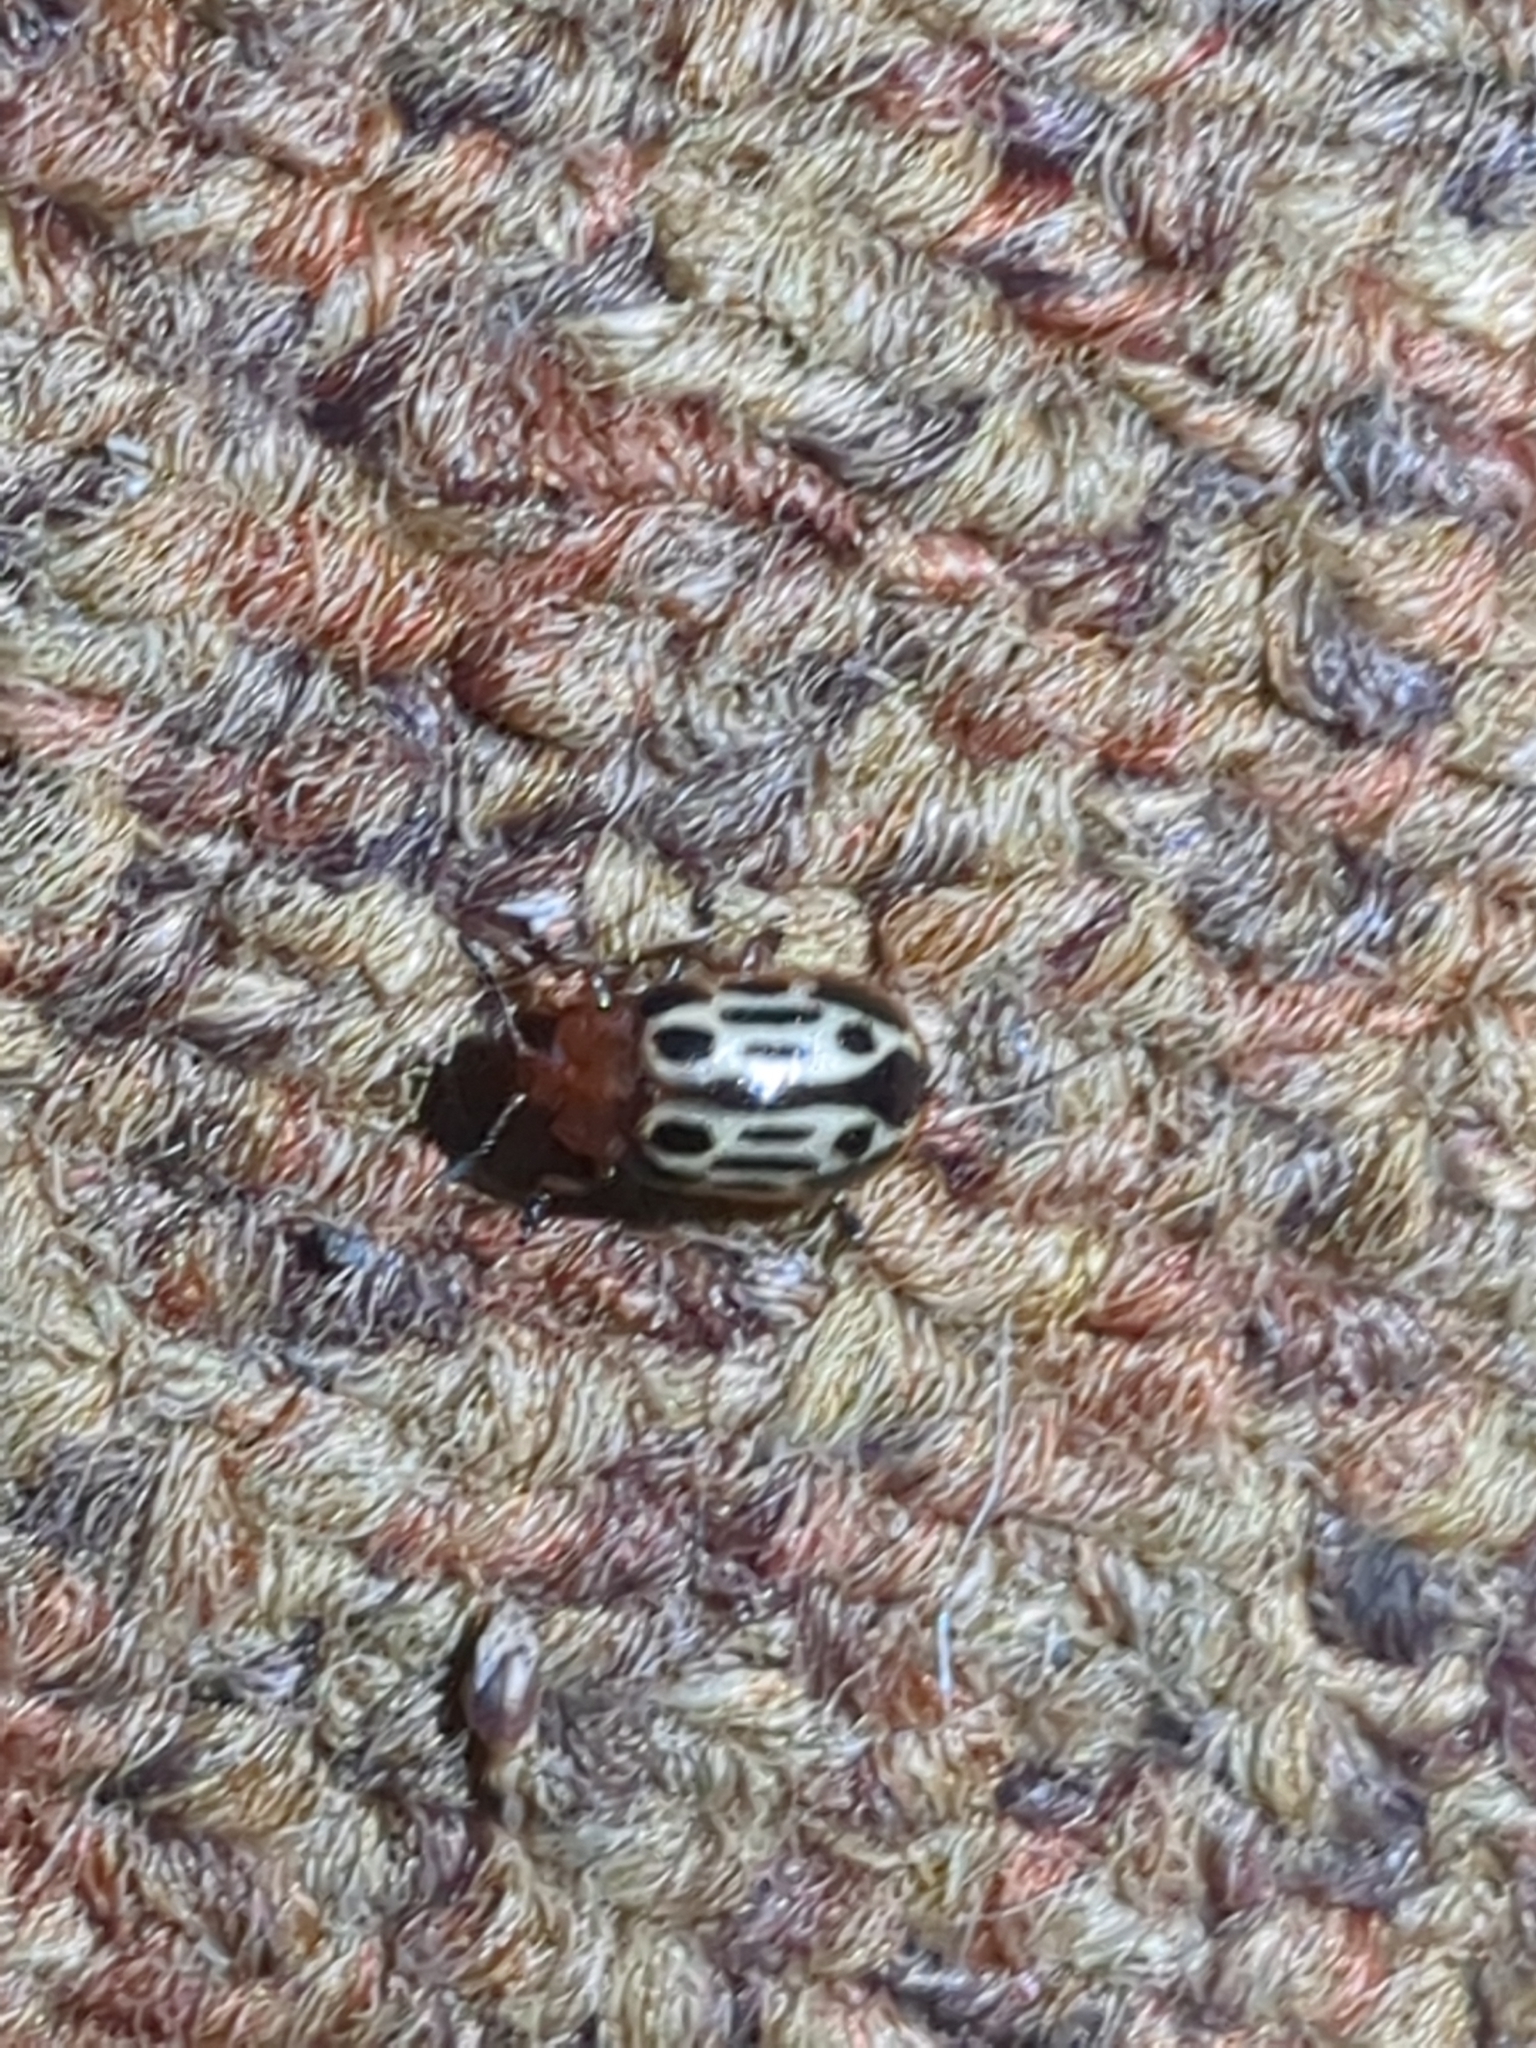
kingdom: Animalia
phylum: Arthropoda
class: Insecta
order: Coleoptera
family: Chrysomelidae
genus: Chrysomela
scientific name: Chrysomela texana
